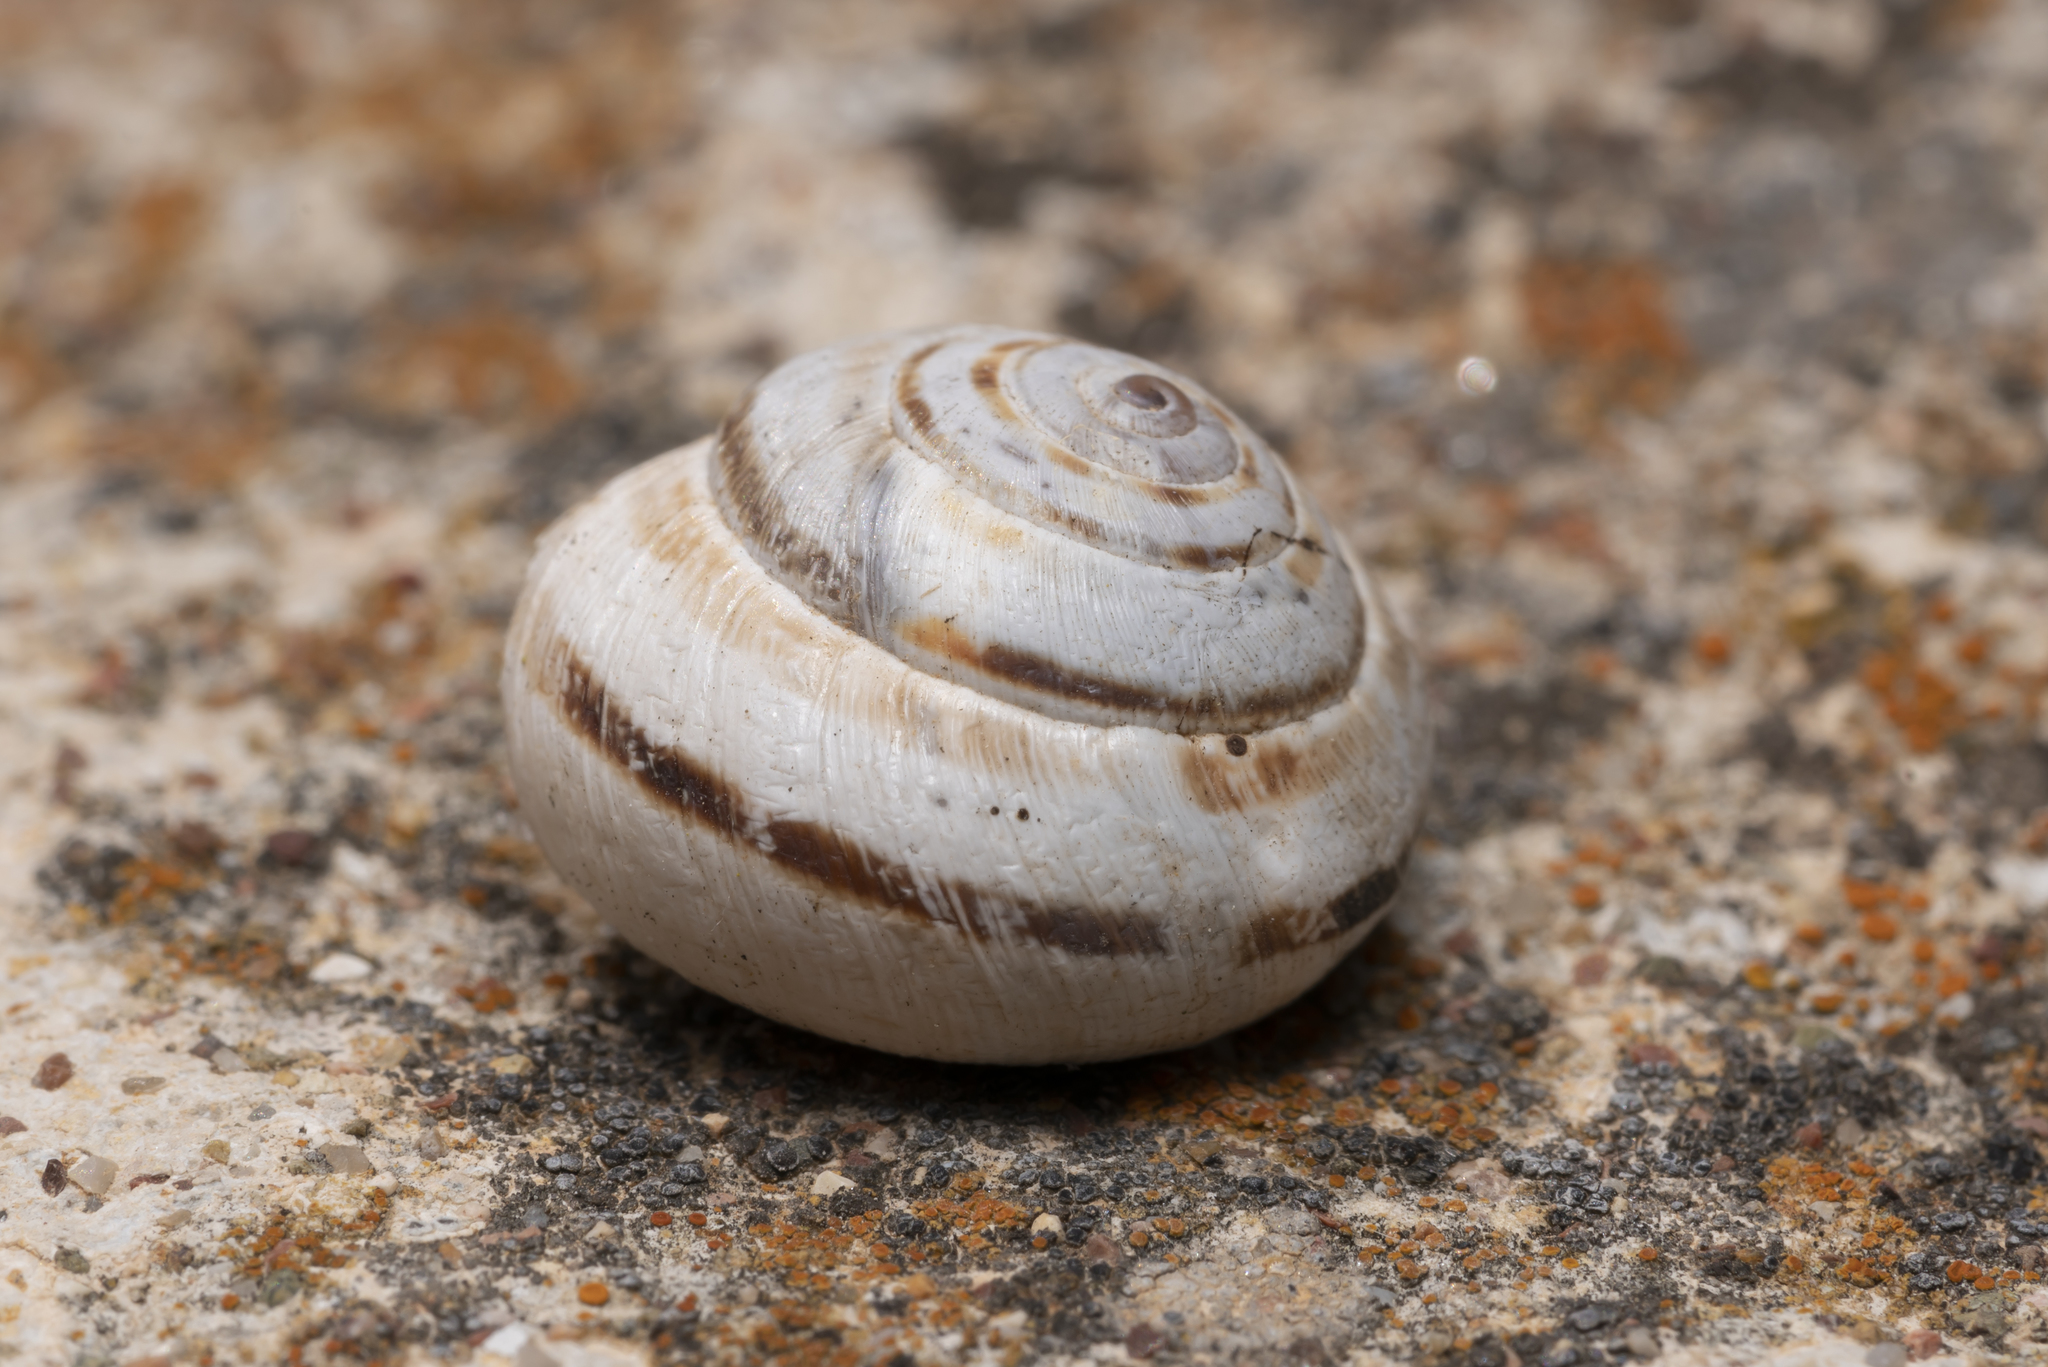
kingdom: Animalia
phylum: Mollusca
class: Gastropoda
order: Stylommatophora
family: Geomitridae
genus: Xerocrassa
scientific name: Xerocrassa cretica
